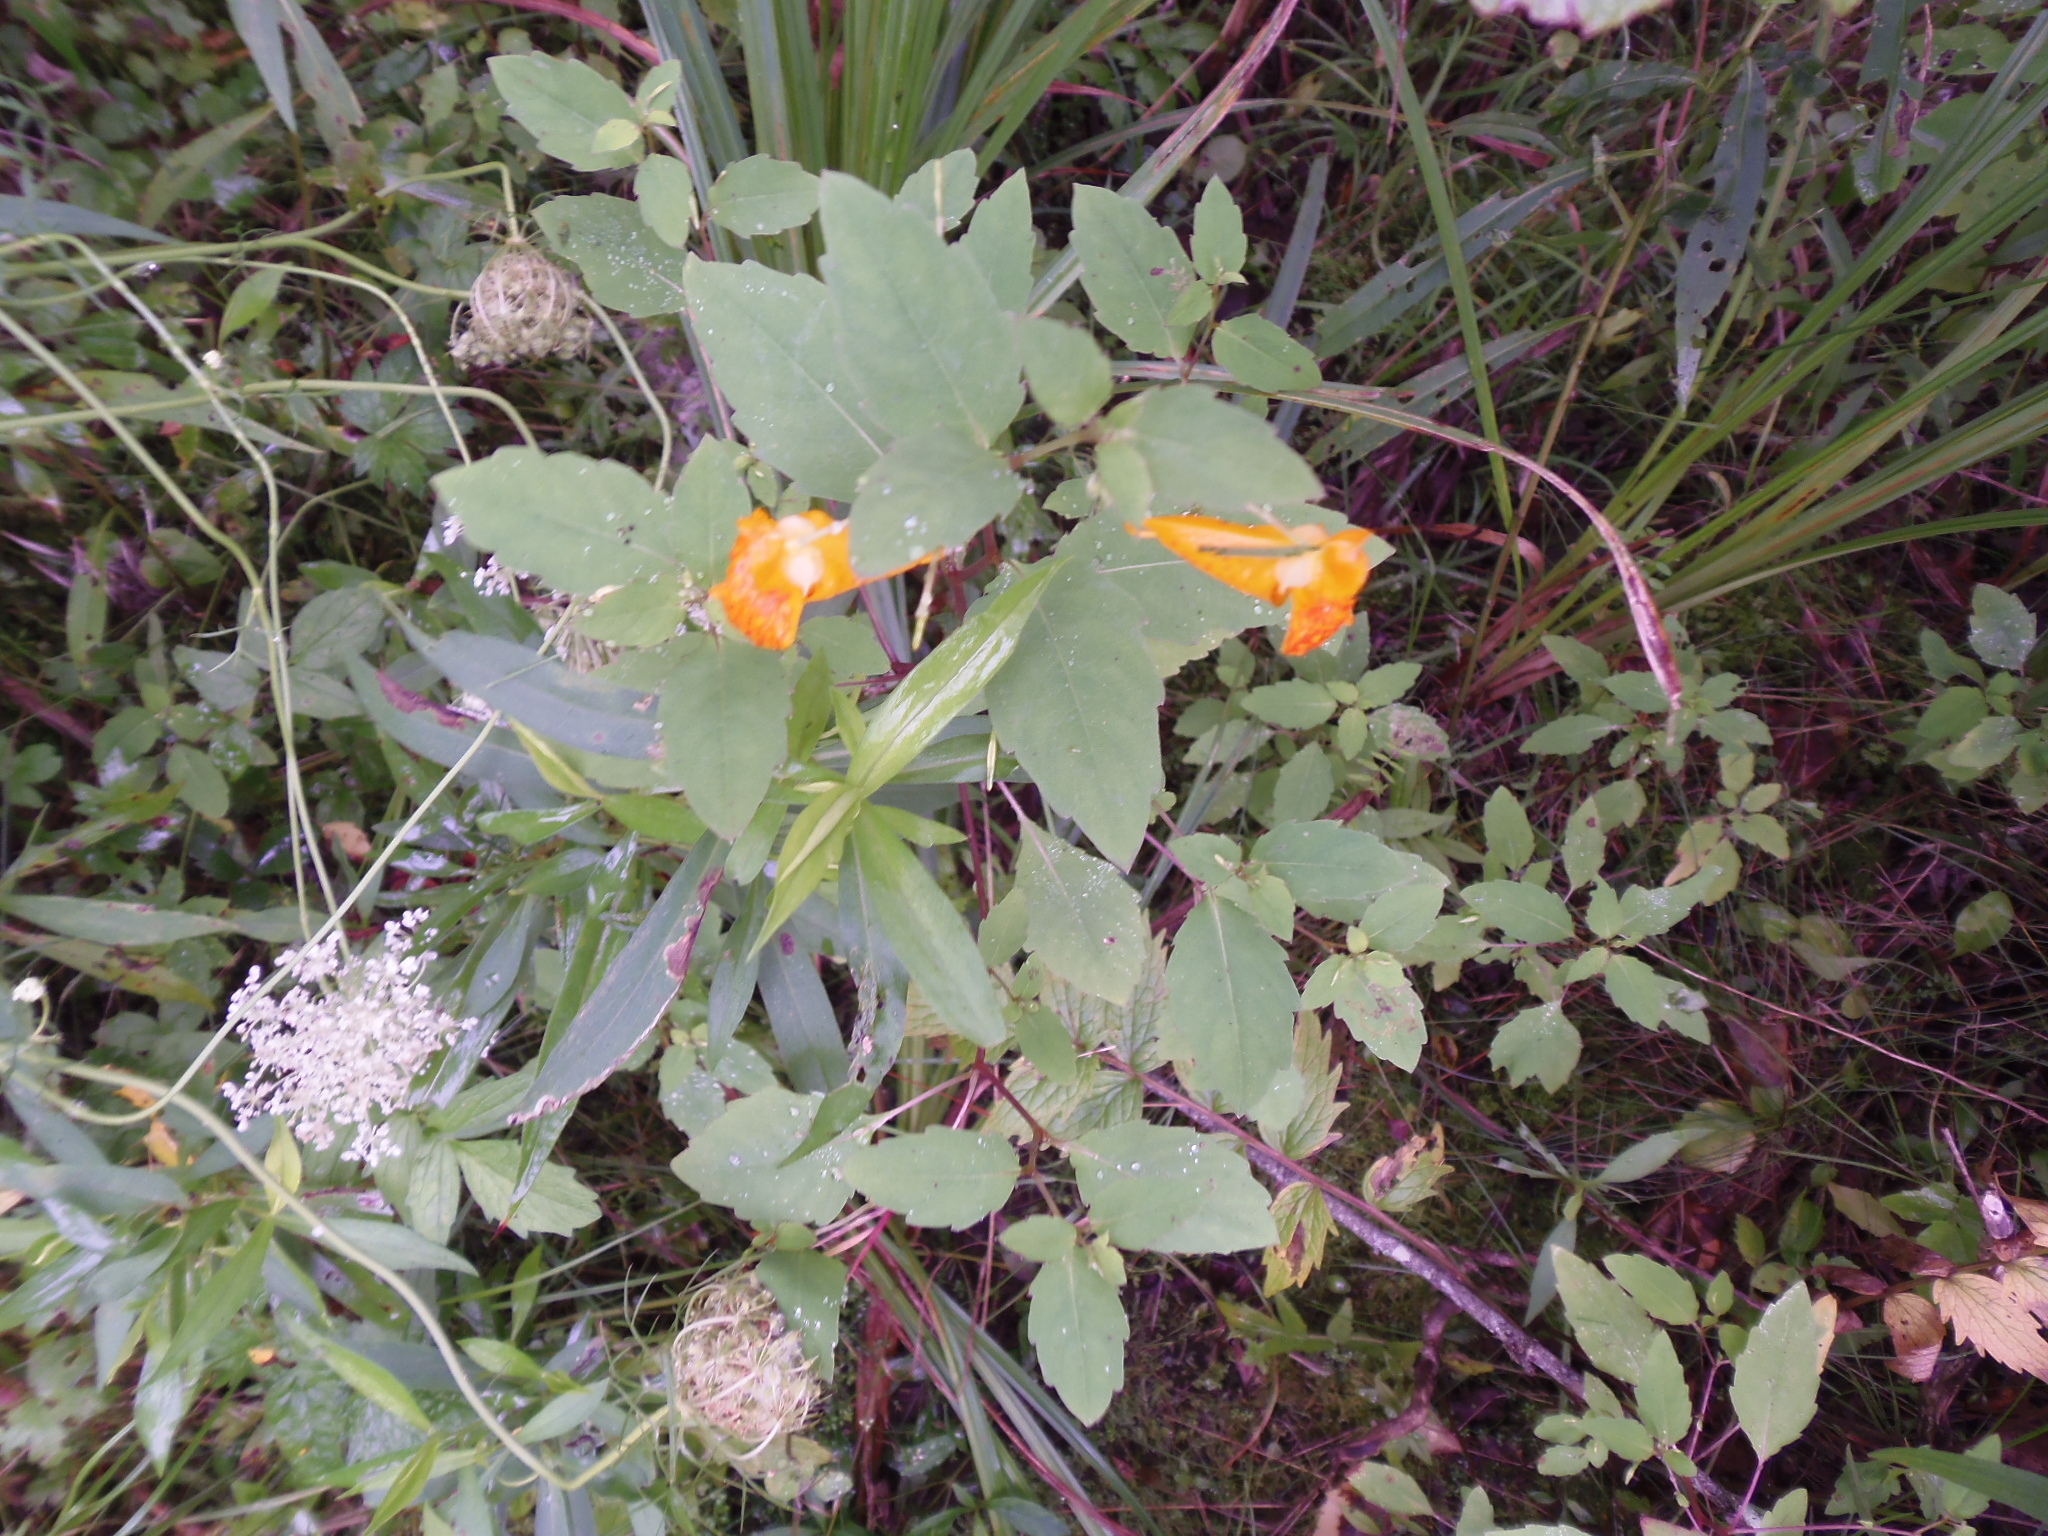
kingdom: Plantae
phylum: Tracheophyta
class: Magnoliopsida
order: Ericales
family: Balsaminaceae
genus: Impatiens
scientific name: Impatiens capensis
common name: Orange balsam
